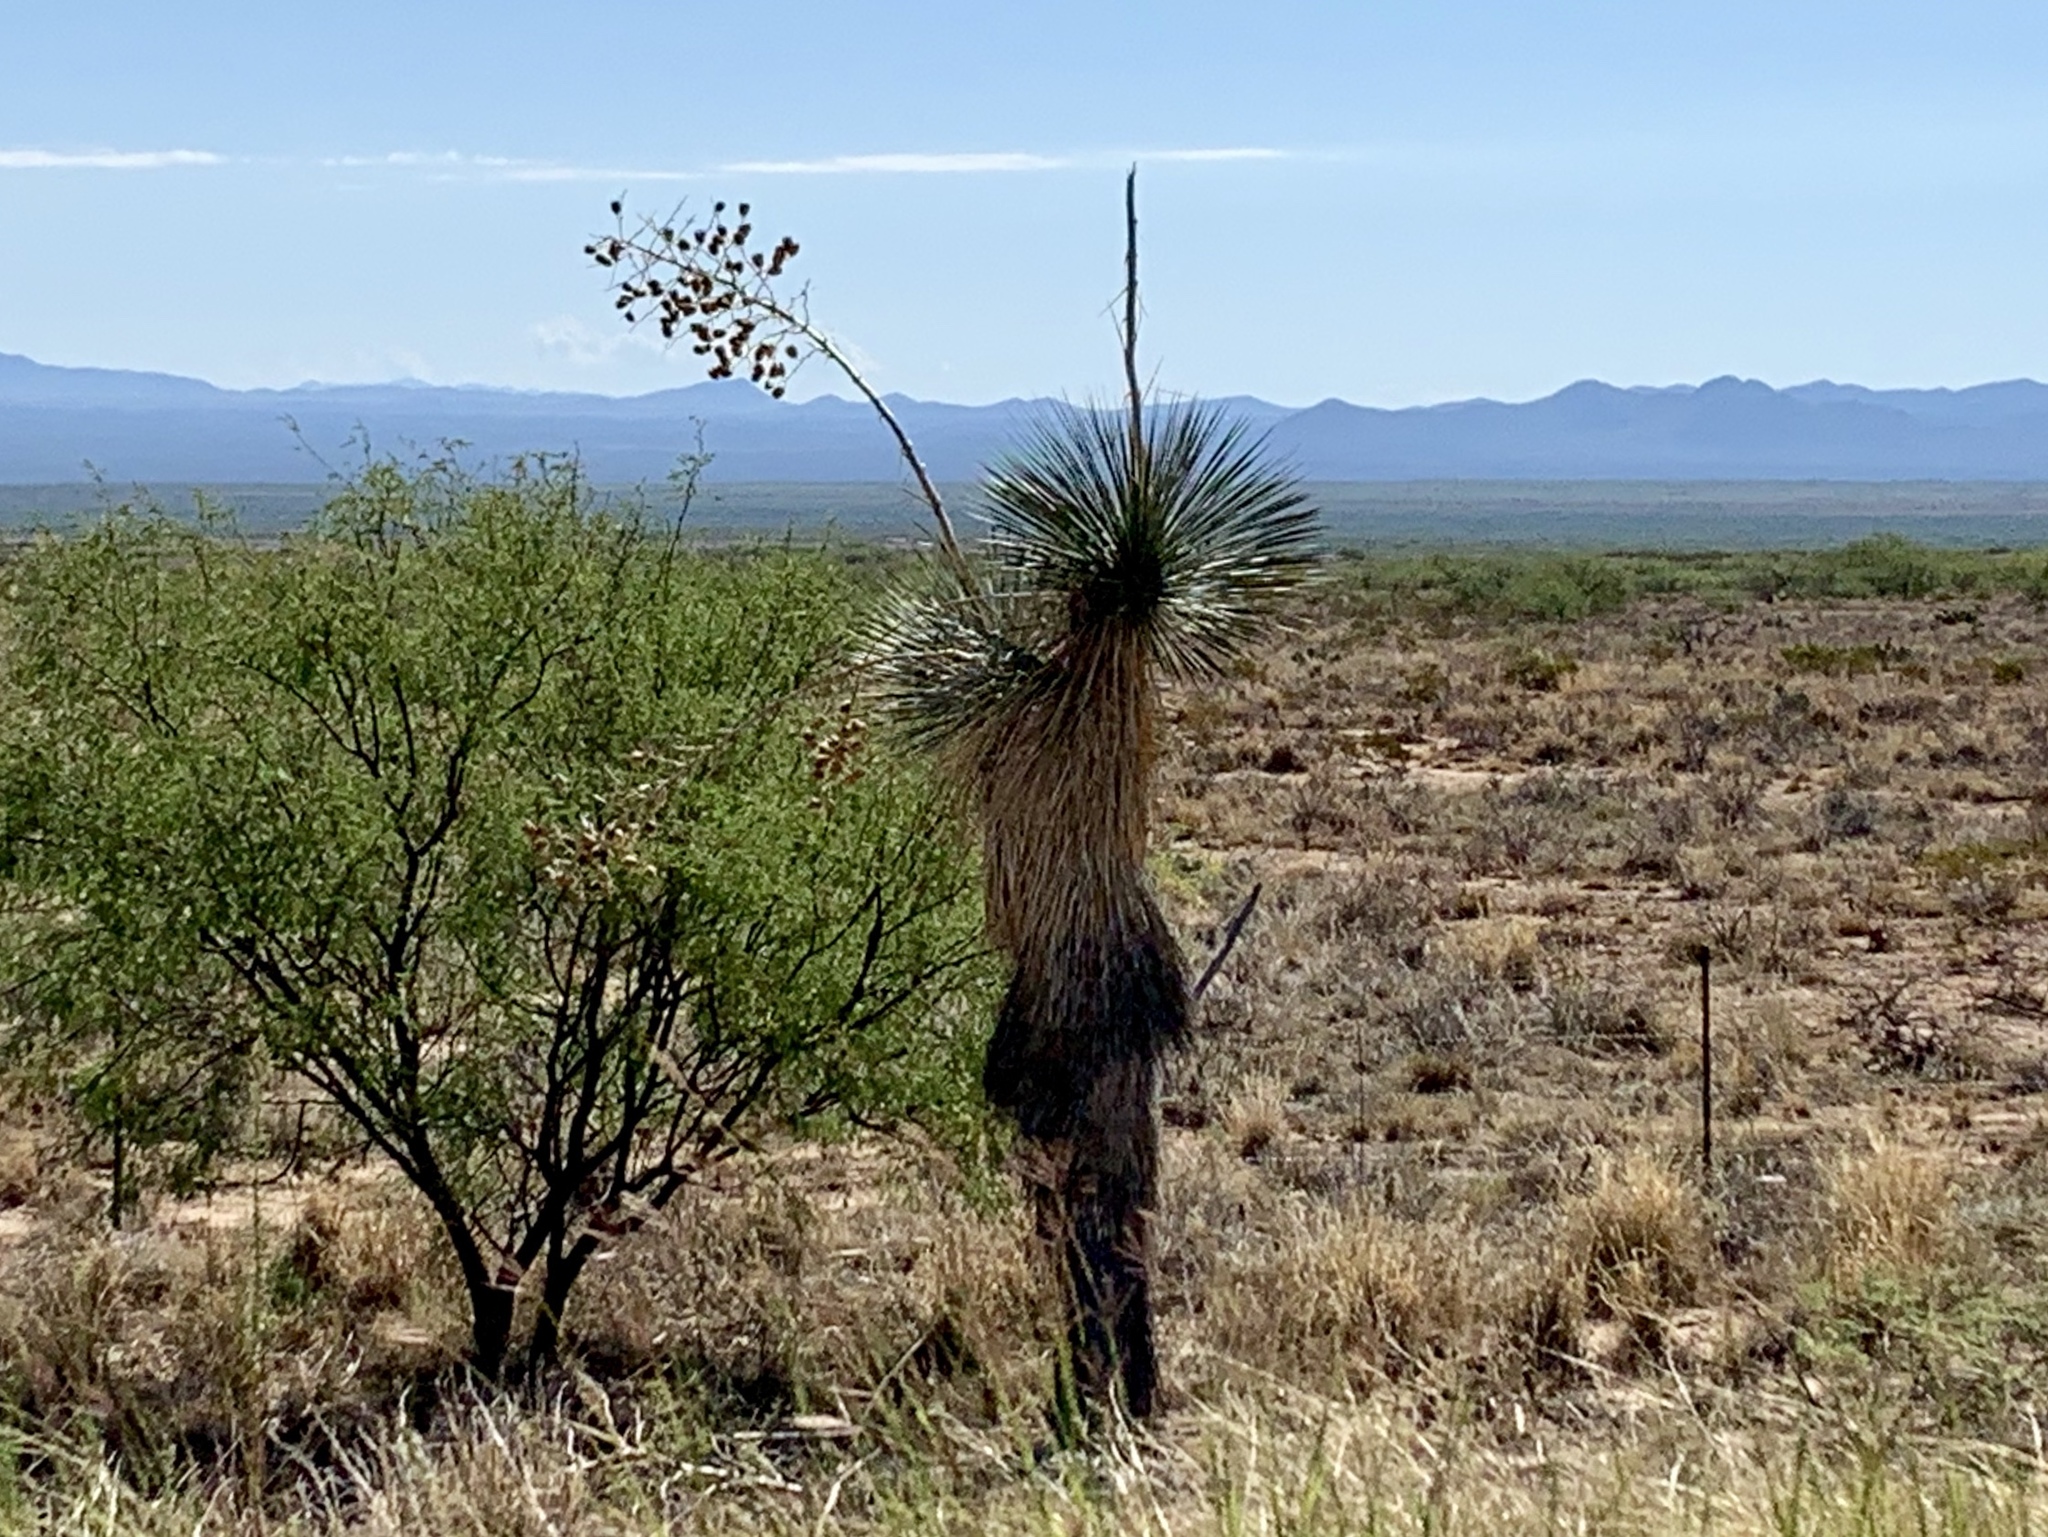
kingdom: Plantae
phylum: Tracheophyta
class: Liliopsida
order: Asparagales
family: Asparagaceae
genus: Yucca
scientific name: Yucca elata
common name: Palmella
